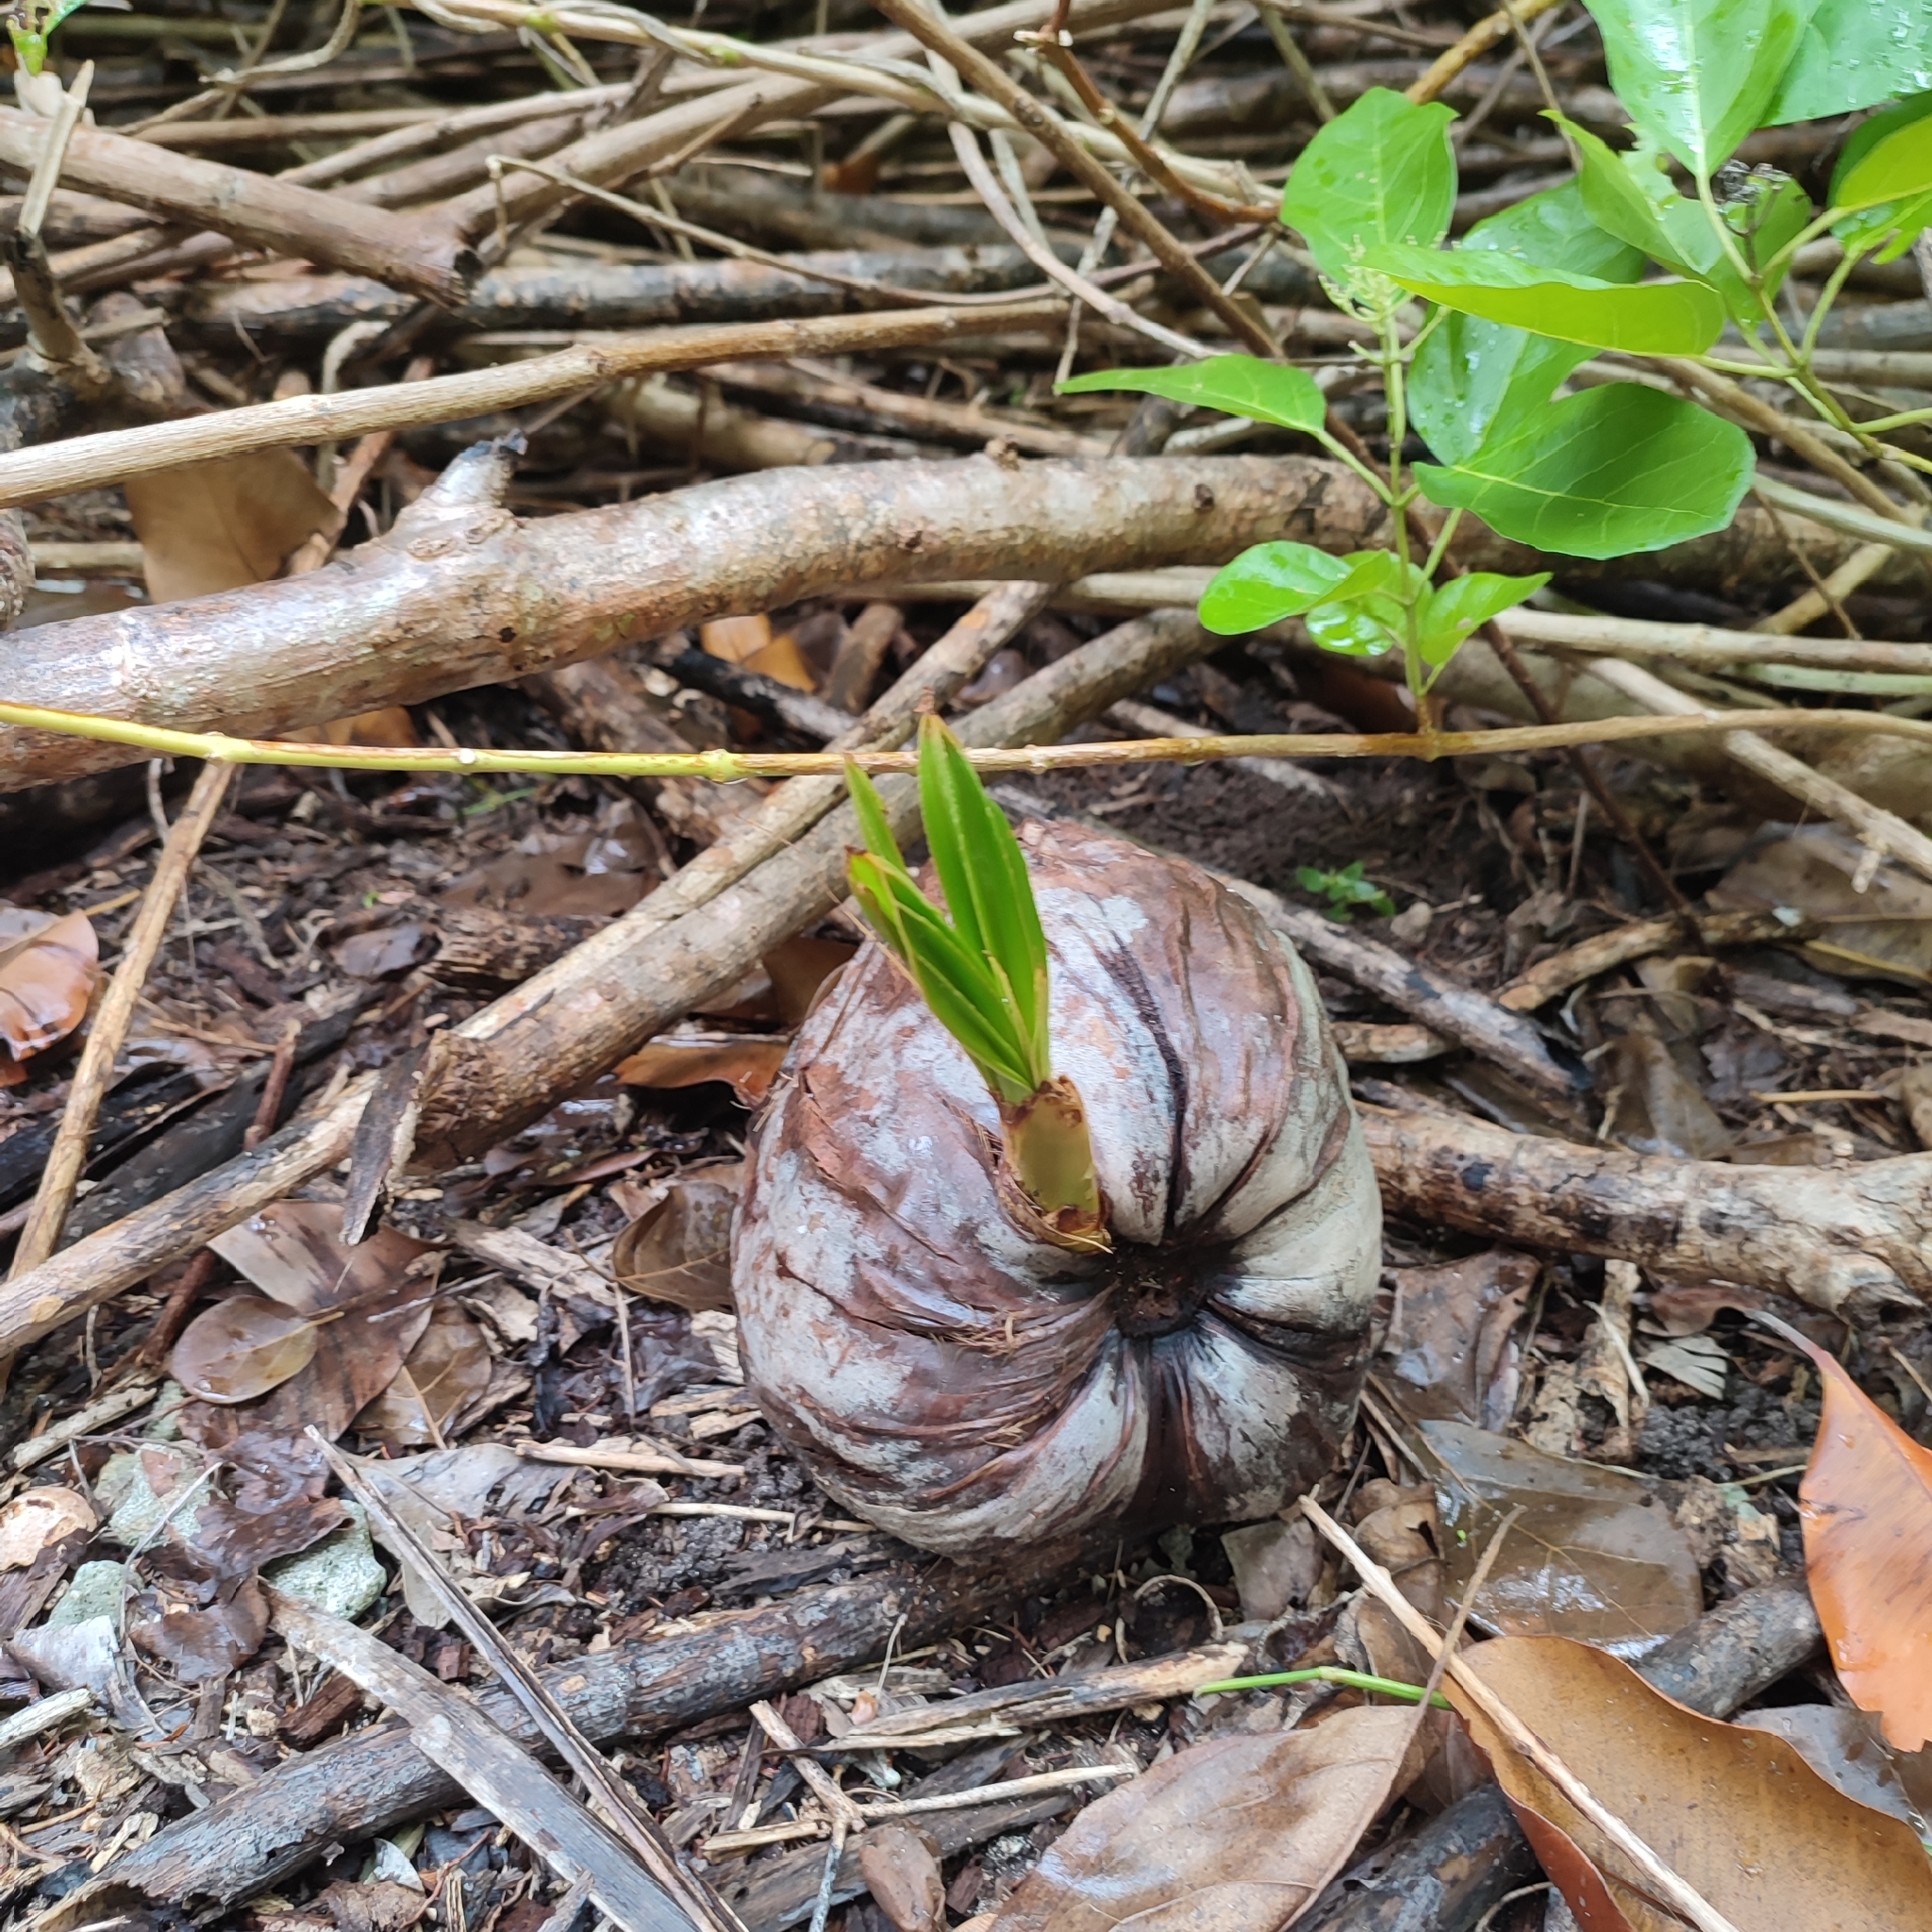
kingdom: Plantae
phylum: Tracheophyta
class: Liliopsida
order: Arecales
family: Arecaceae
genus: Cocos
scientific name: Cocos nucifera
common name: Coconut palm
